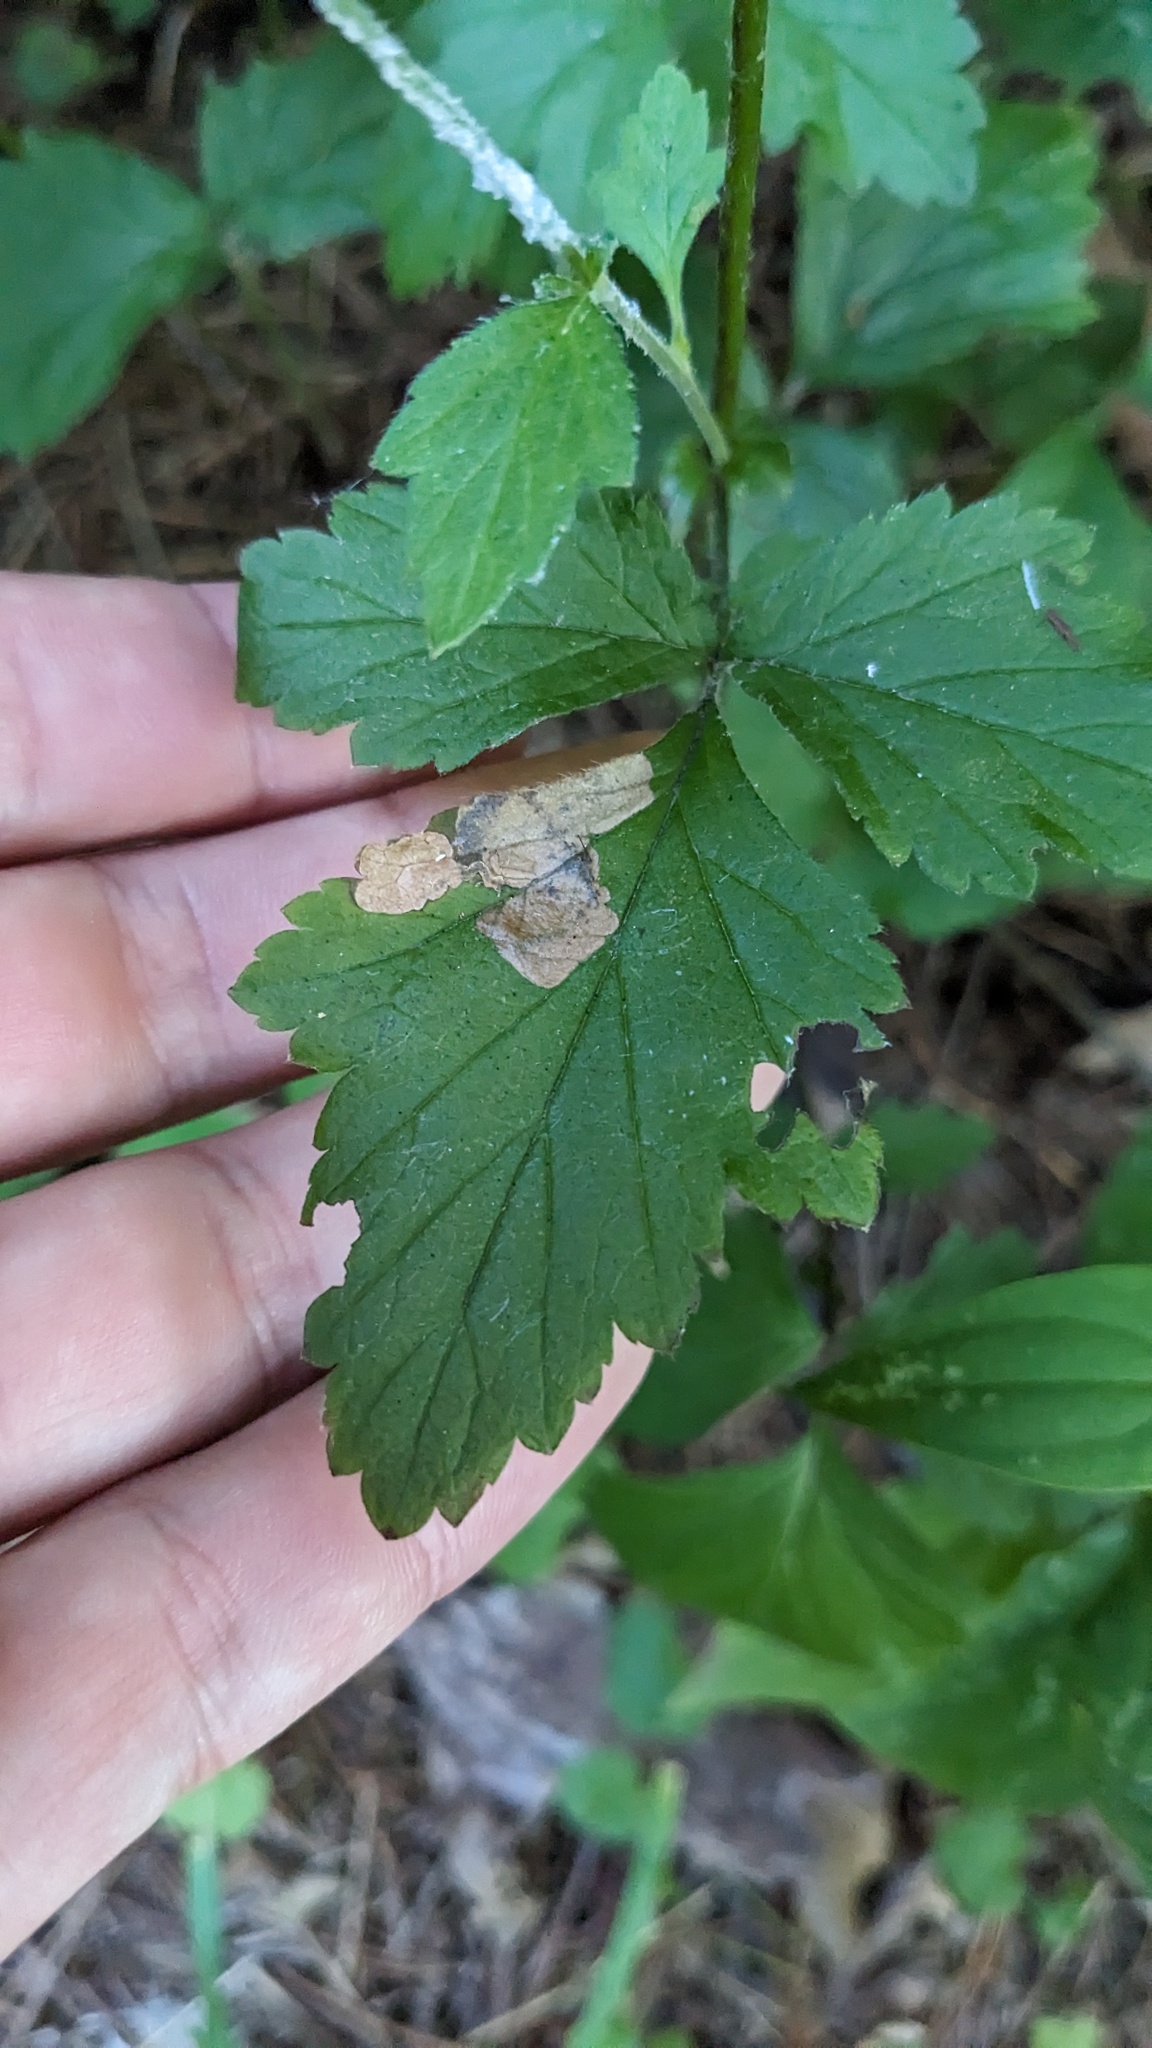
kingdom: Animalia
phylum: Arthropoda
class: Insecta
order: Hymenoptera
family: Tenthredinidae
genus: Metallus
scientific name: Metallus lanceolatus
